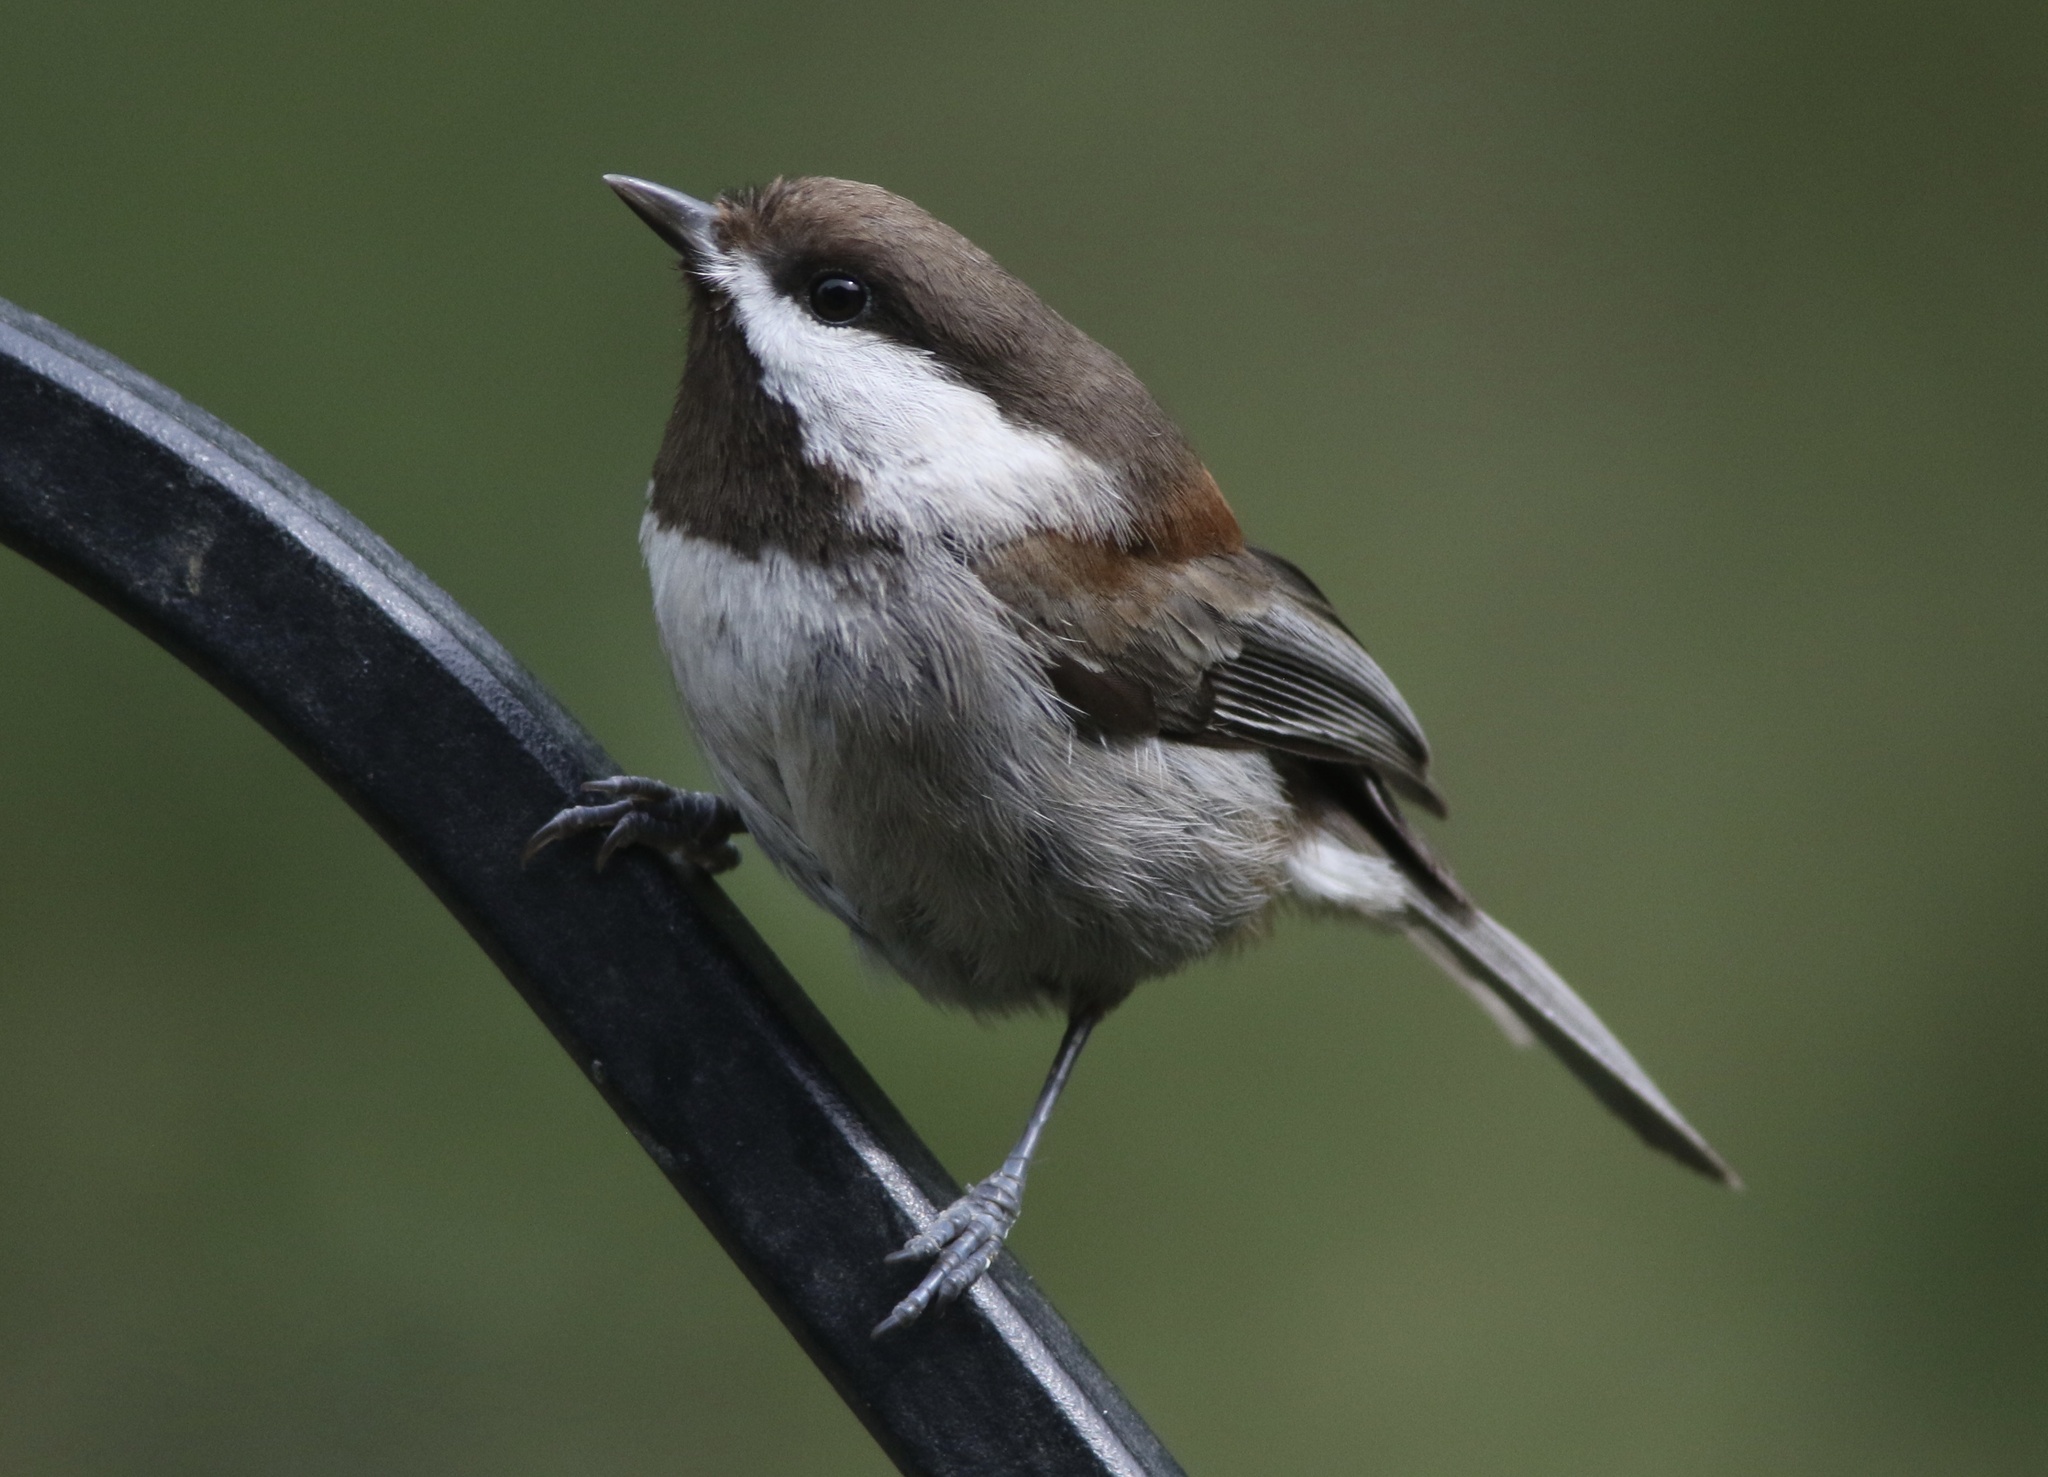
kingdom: Animalia
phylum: Chordata
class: Aves
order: Passeriformes
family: Paridae
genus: Poecile
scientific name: Poecile rufescens
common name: Chestnut-backed chickadee
